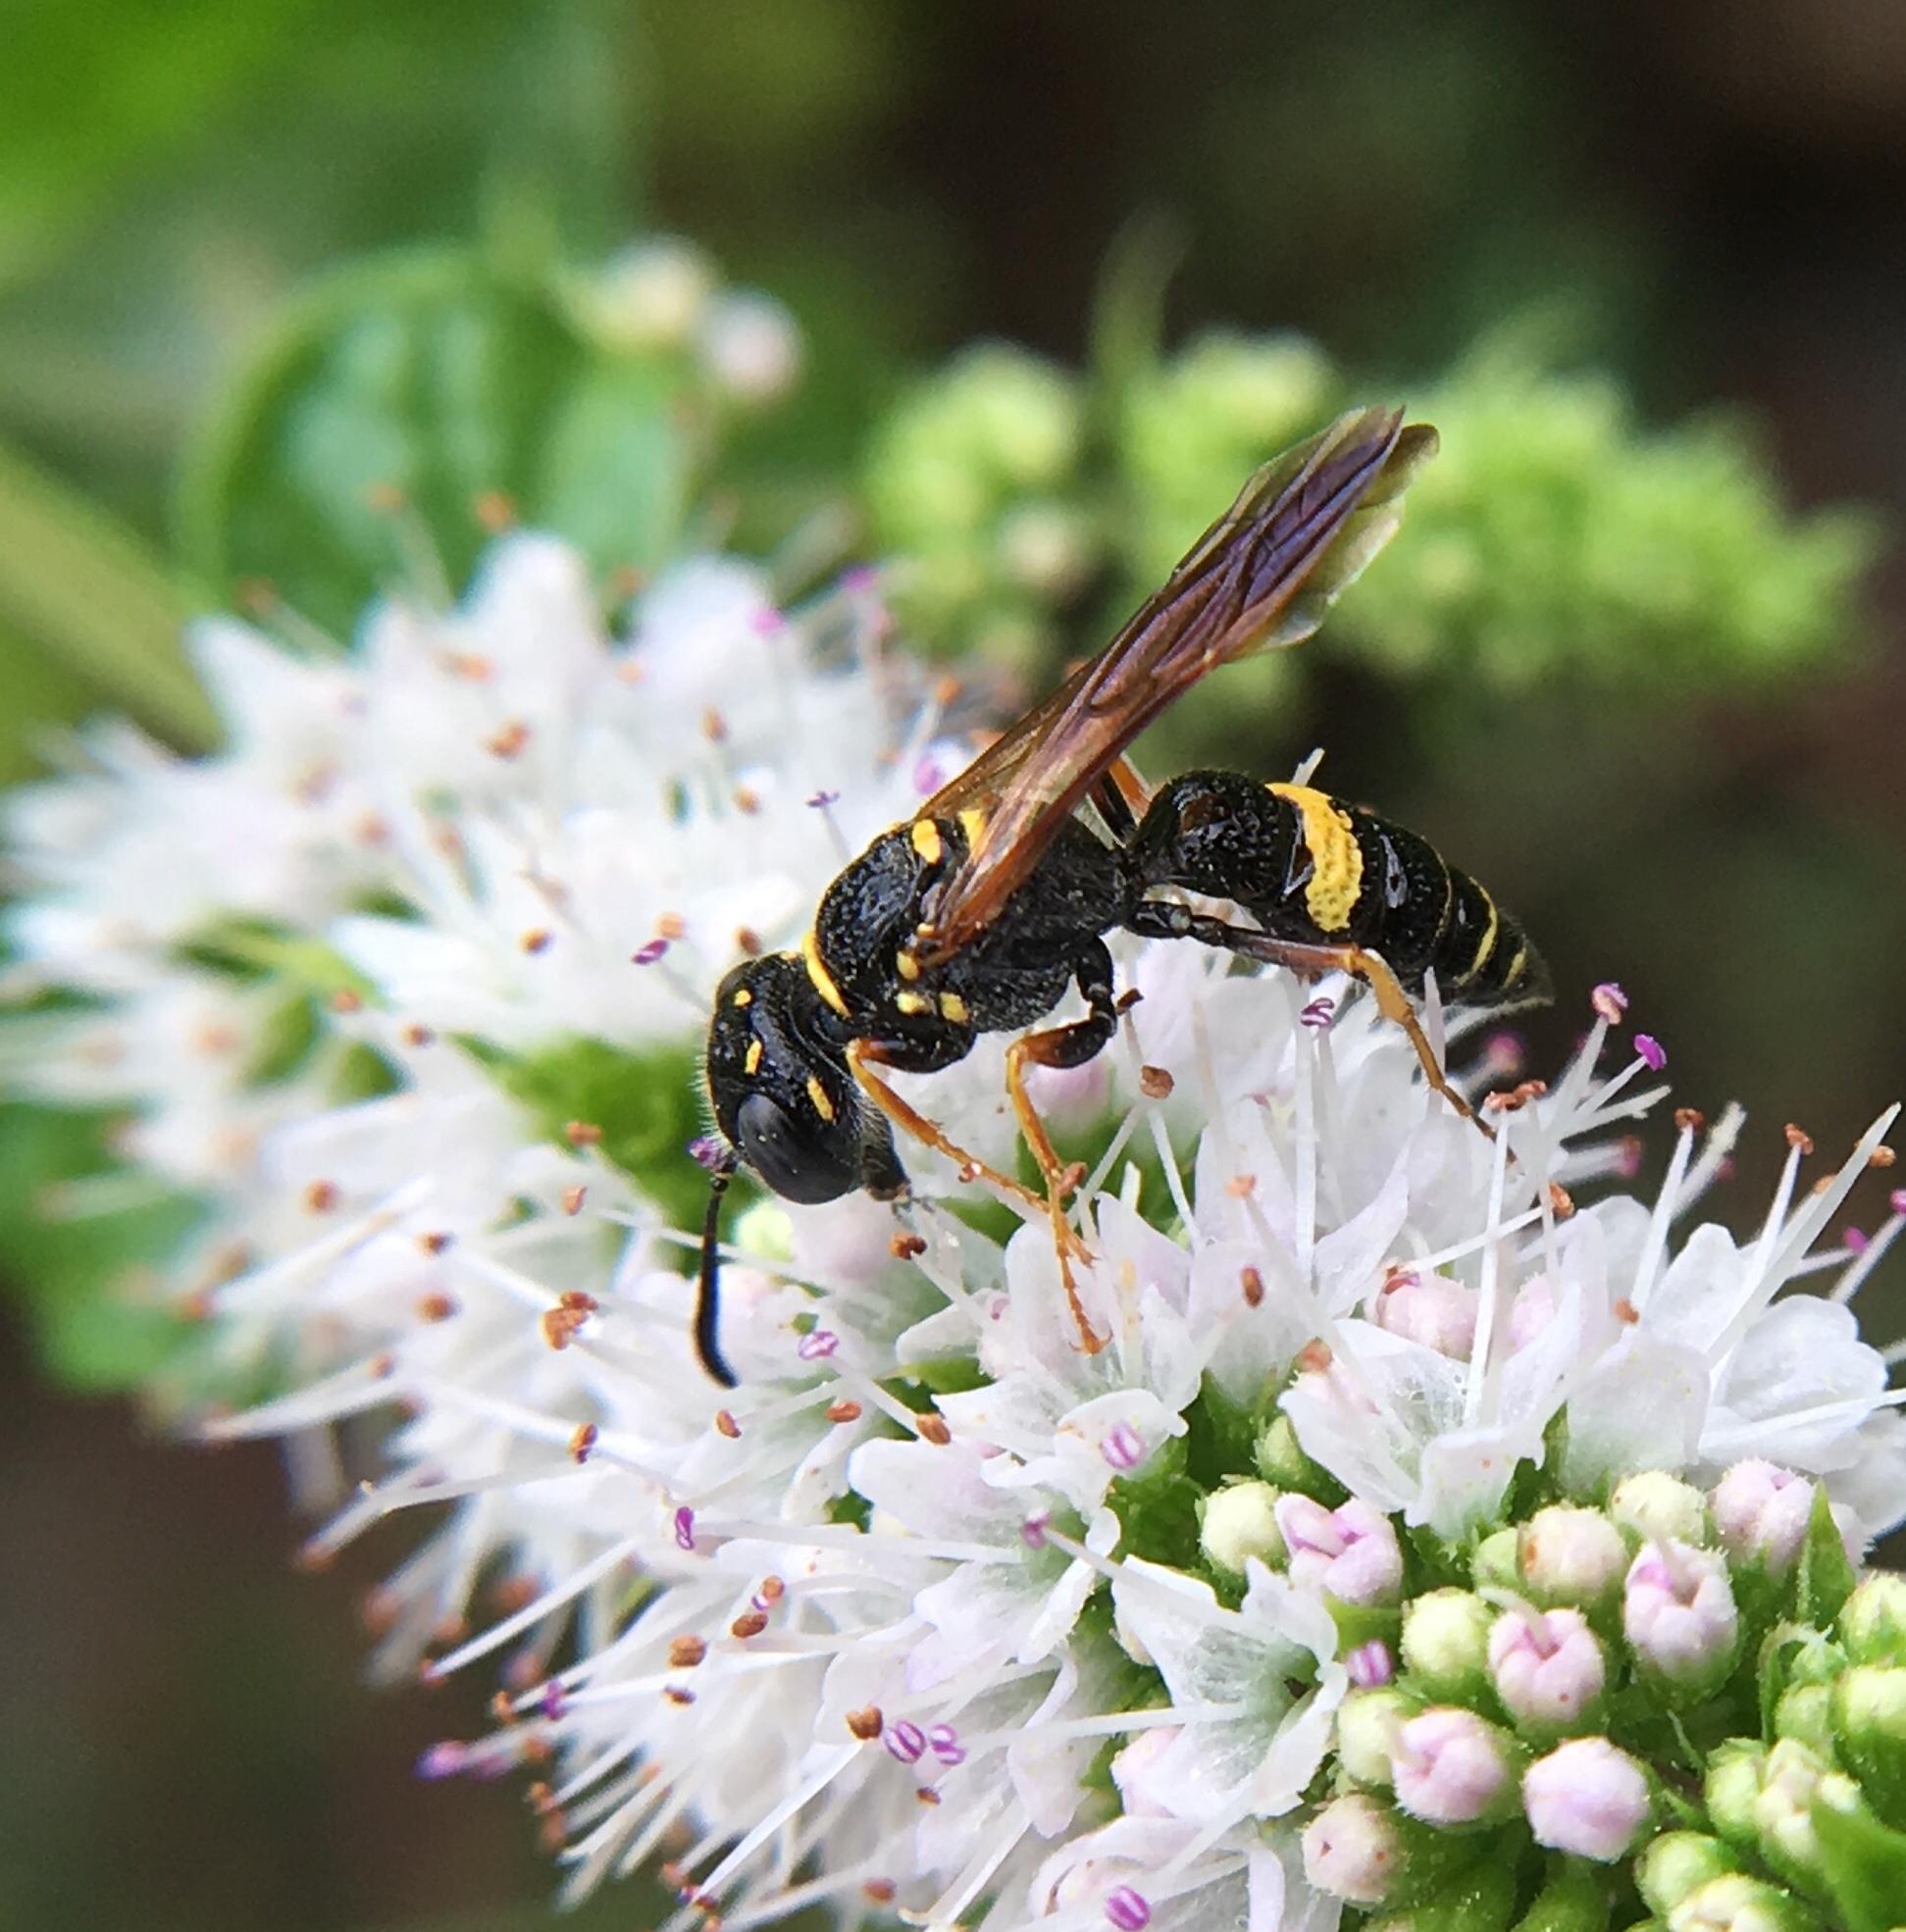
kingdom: Animalia
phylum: Arthropoda
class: Insecta
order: Hymenoptera
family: Crabronidae
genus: Philanthus
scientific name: Philanthus gibbosus
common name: Humped beewolf
